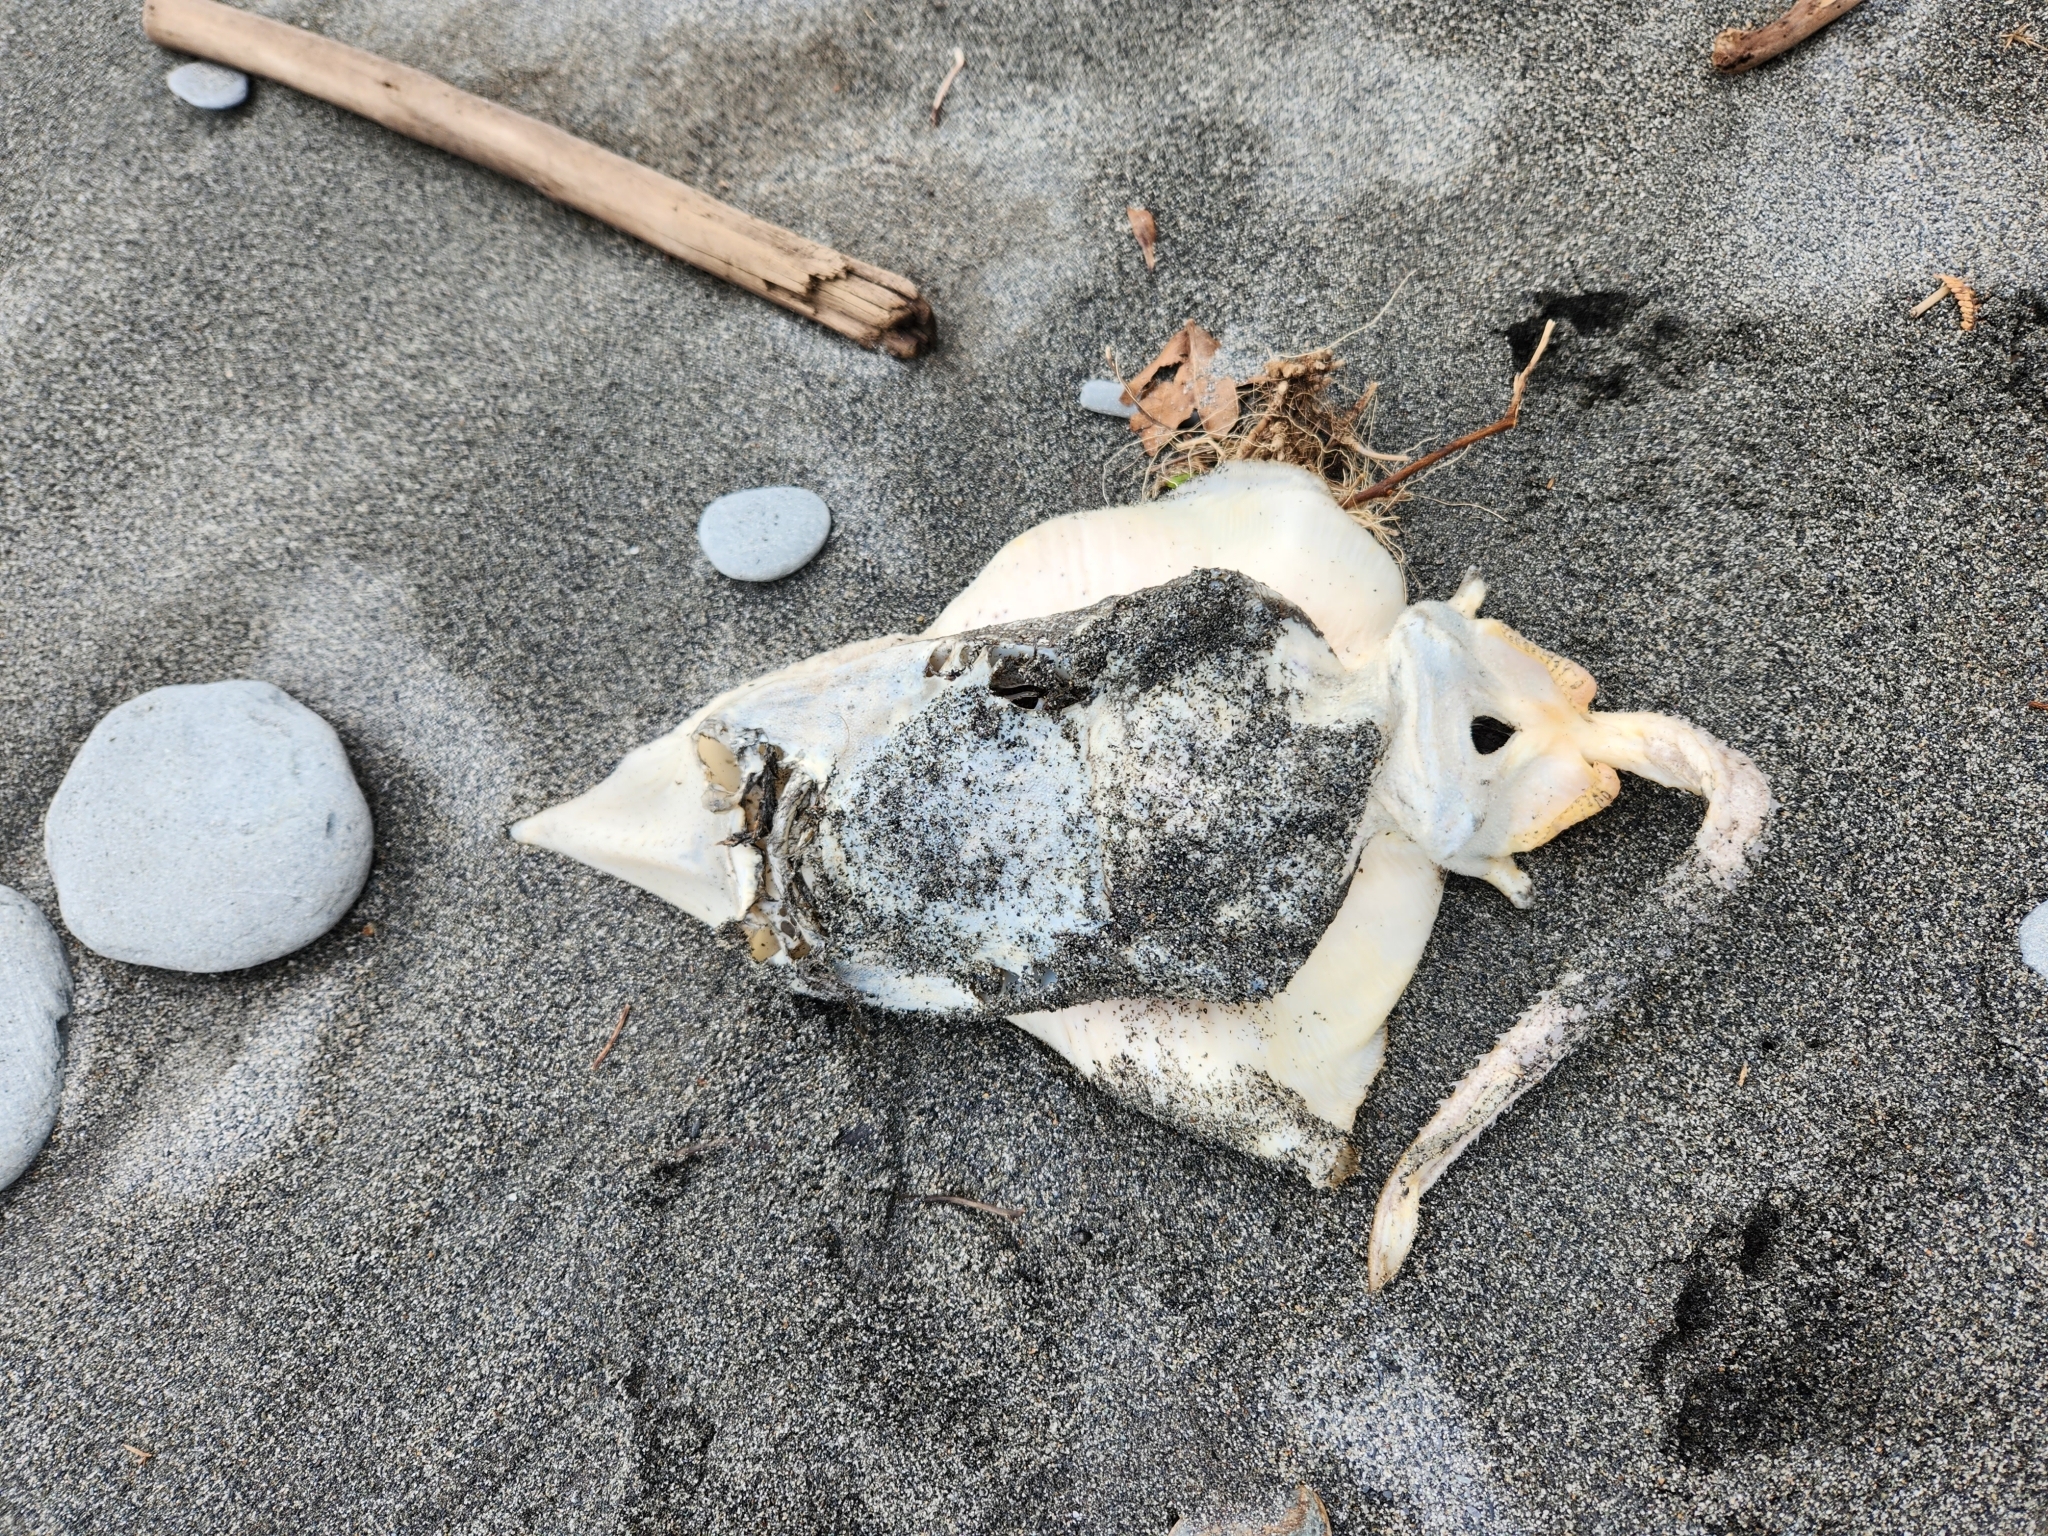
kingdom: Animalia
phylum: Chordata
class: Elasmobranchii
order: Rajiformes
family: Rajidae
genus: Zearaja
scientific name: Zearaja nasuta
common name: New zealand rough skate
